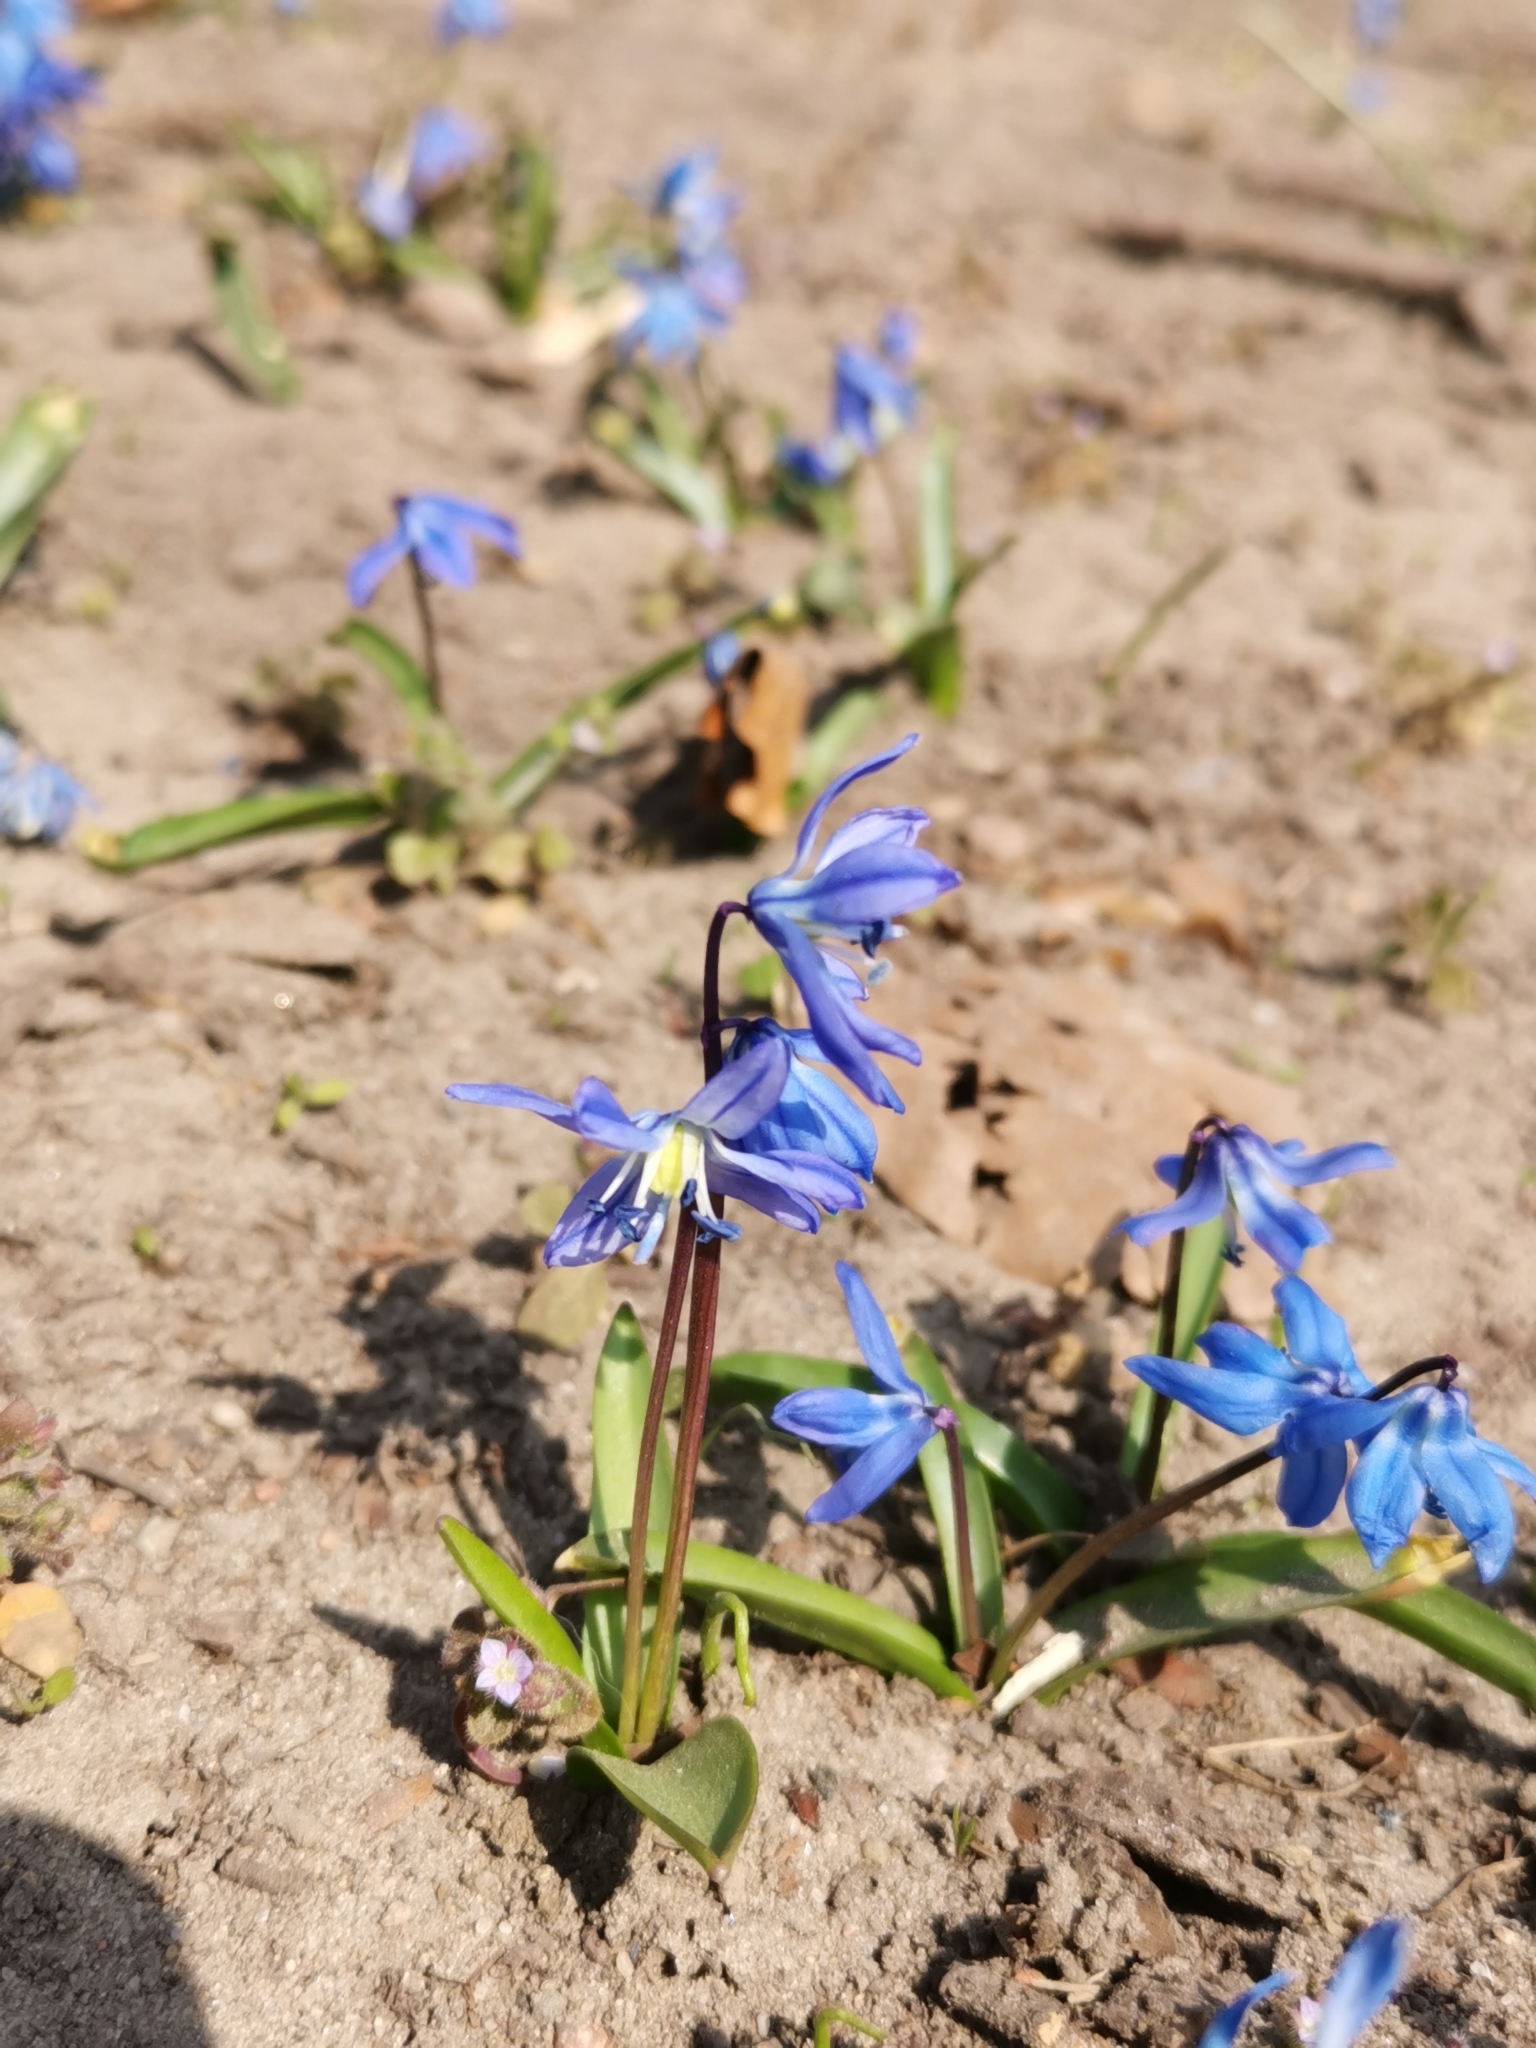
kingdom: Plantae
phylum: Tracheophyta
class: Liliopsida
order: Asparagales
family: Asparagaceae
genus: Scilla
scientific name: Scilla siberica
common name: Siberian squill
